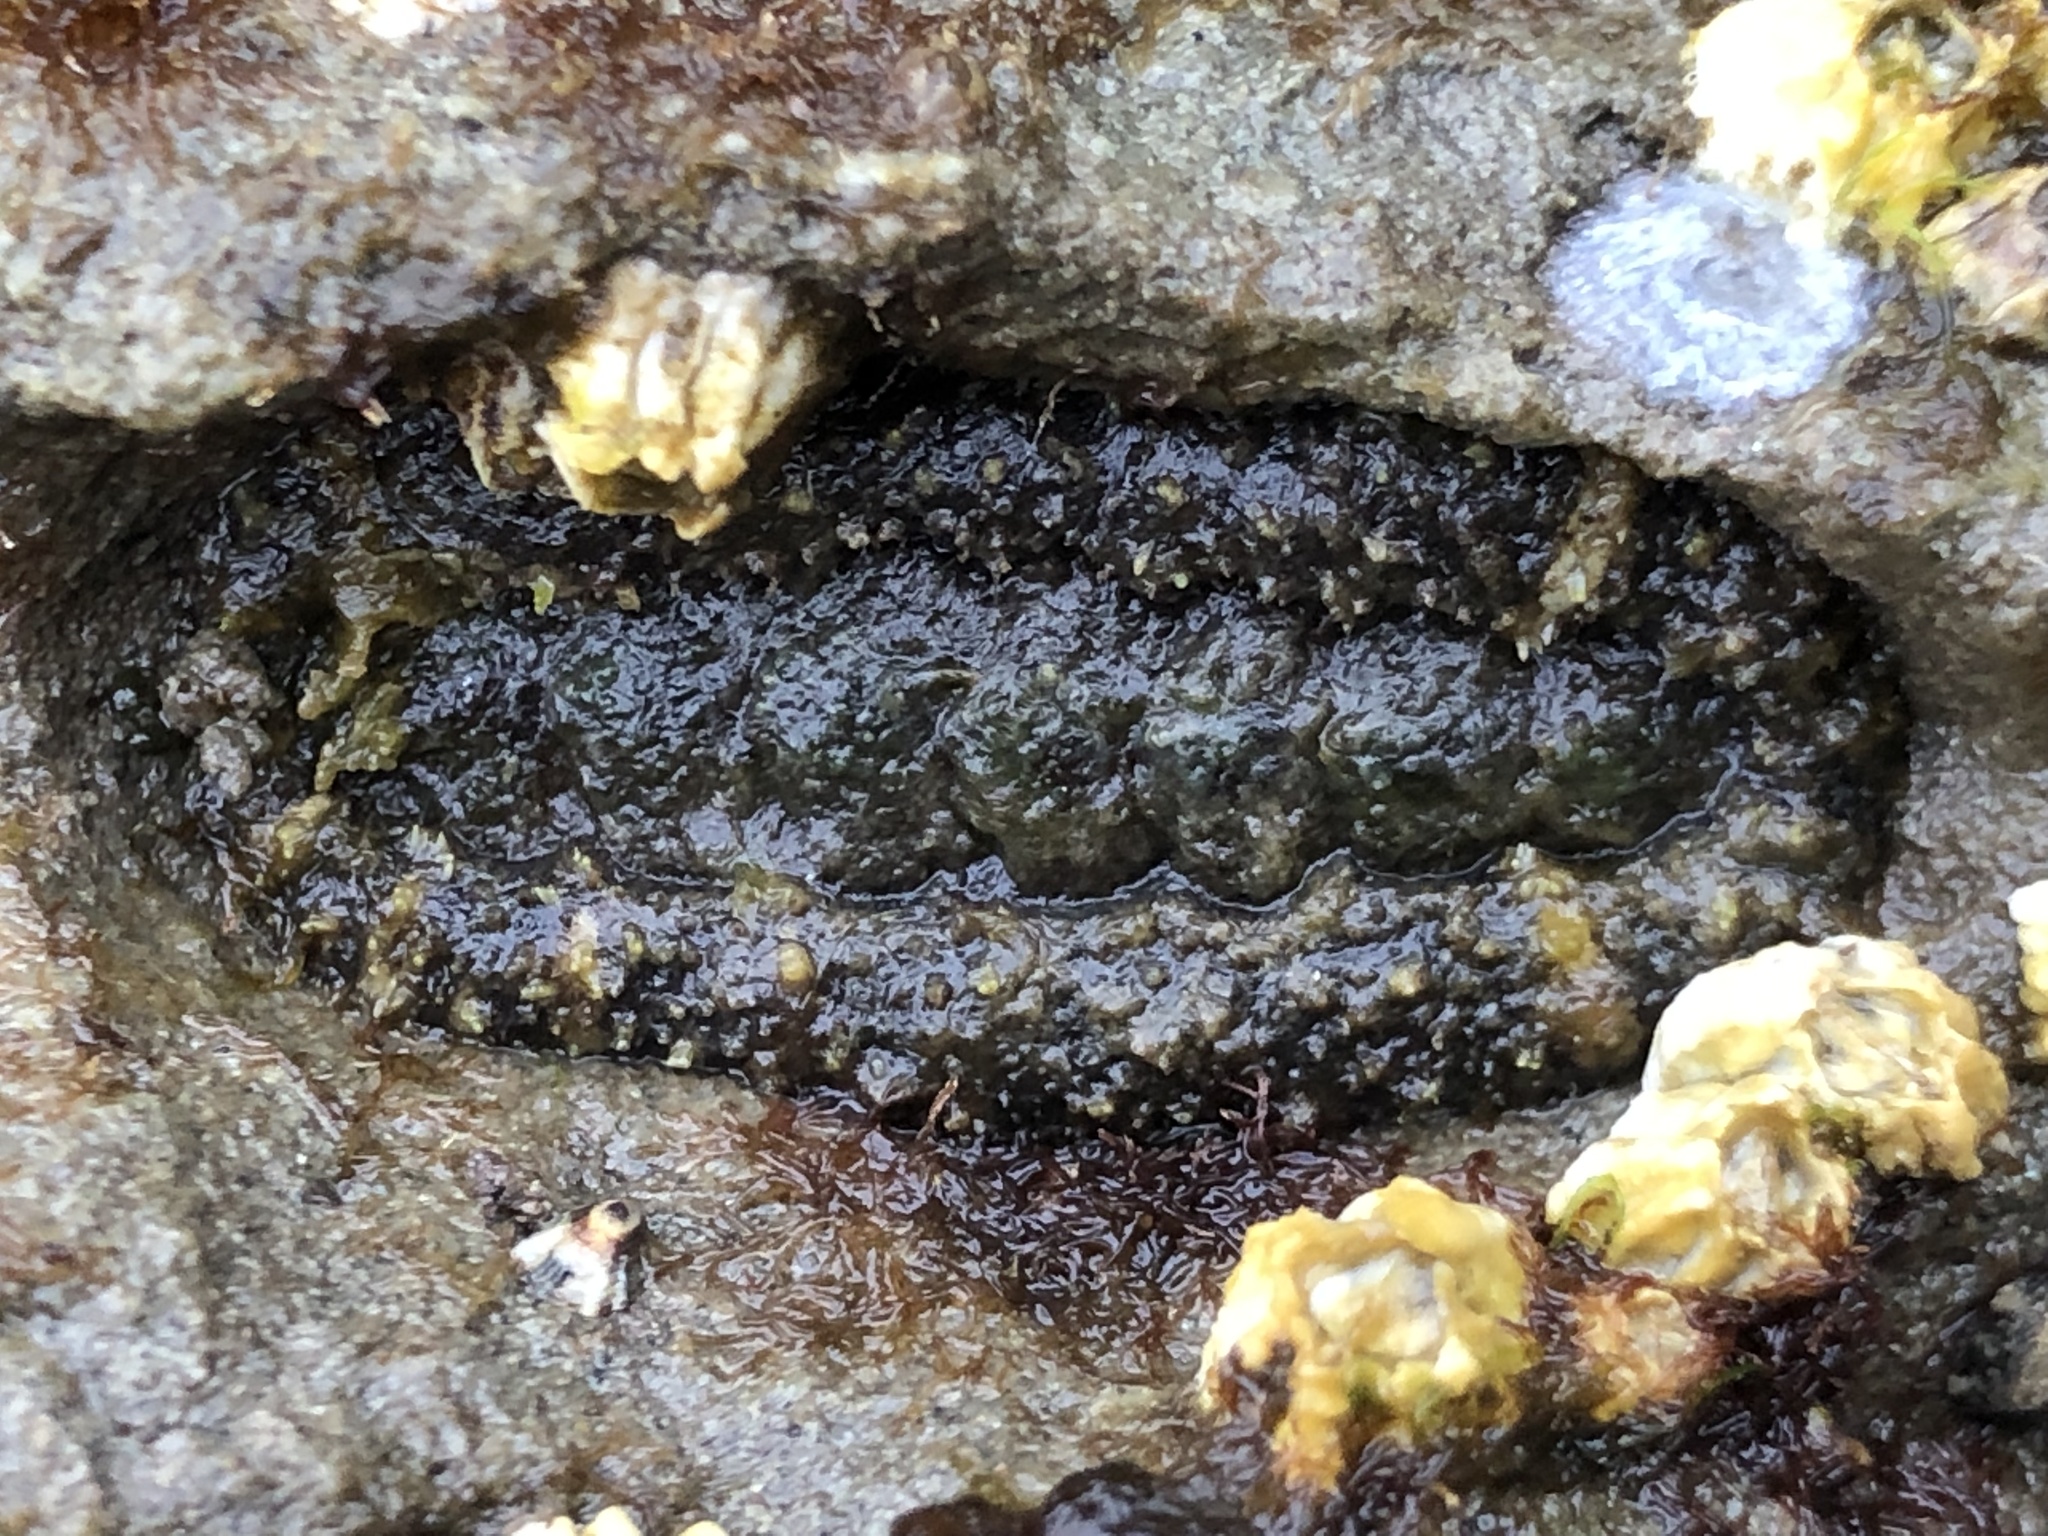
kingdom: Animalia
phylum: Mollusca
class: Polyplacophora
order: Chitonida
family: Tonicellidae
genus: Nuttallina
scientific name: Nuttallina californica
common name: California nuttall chiton
